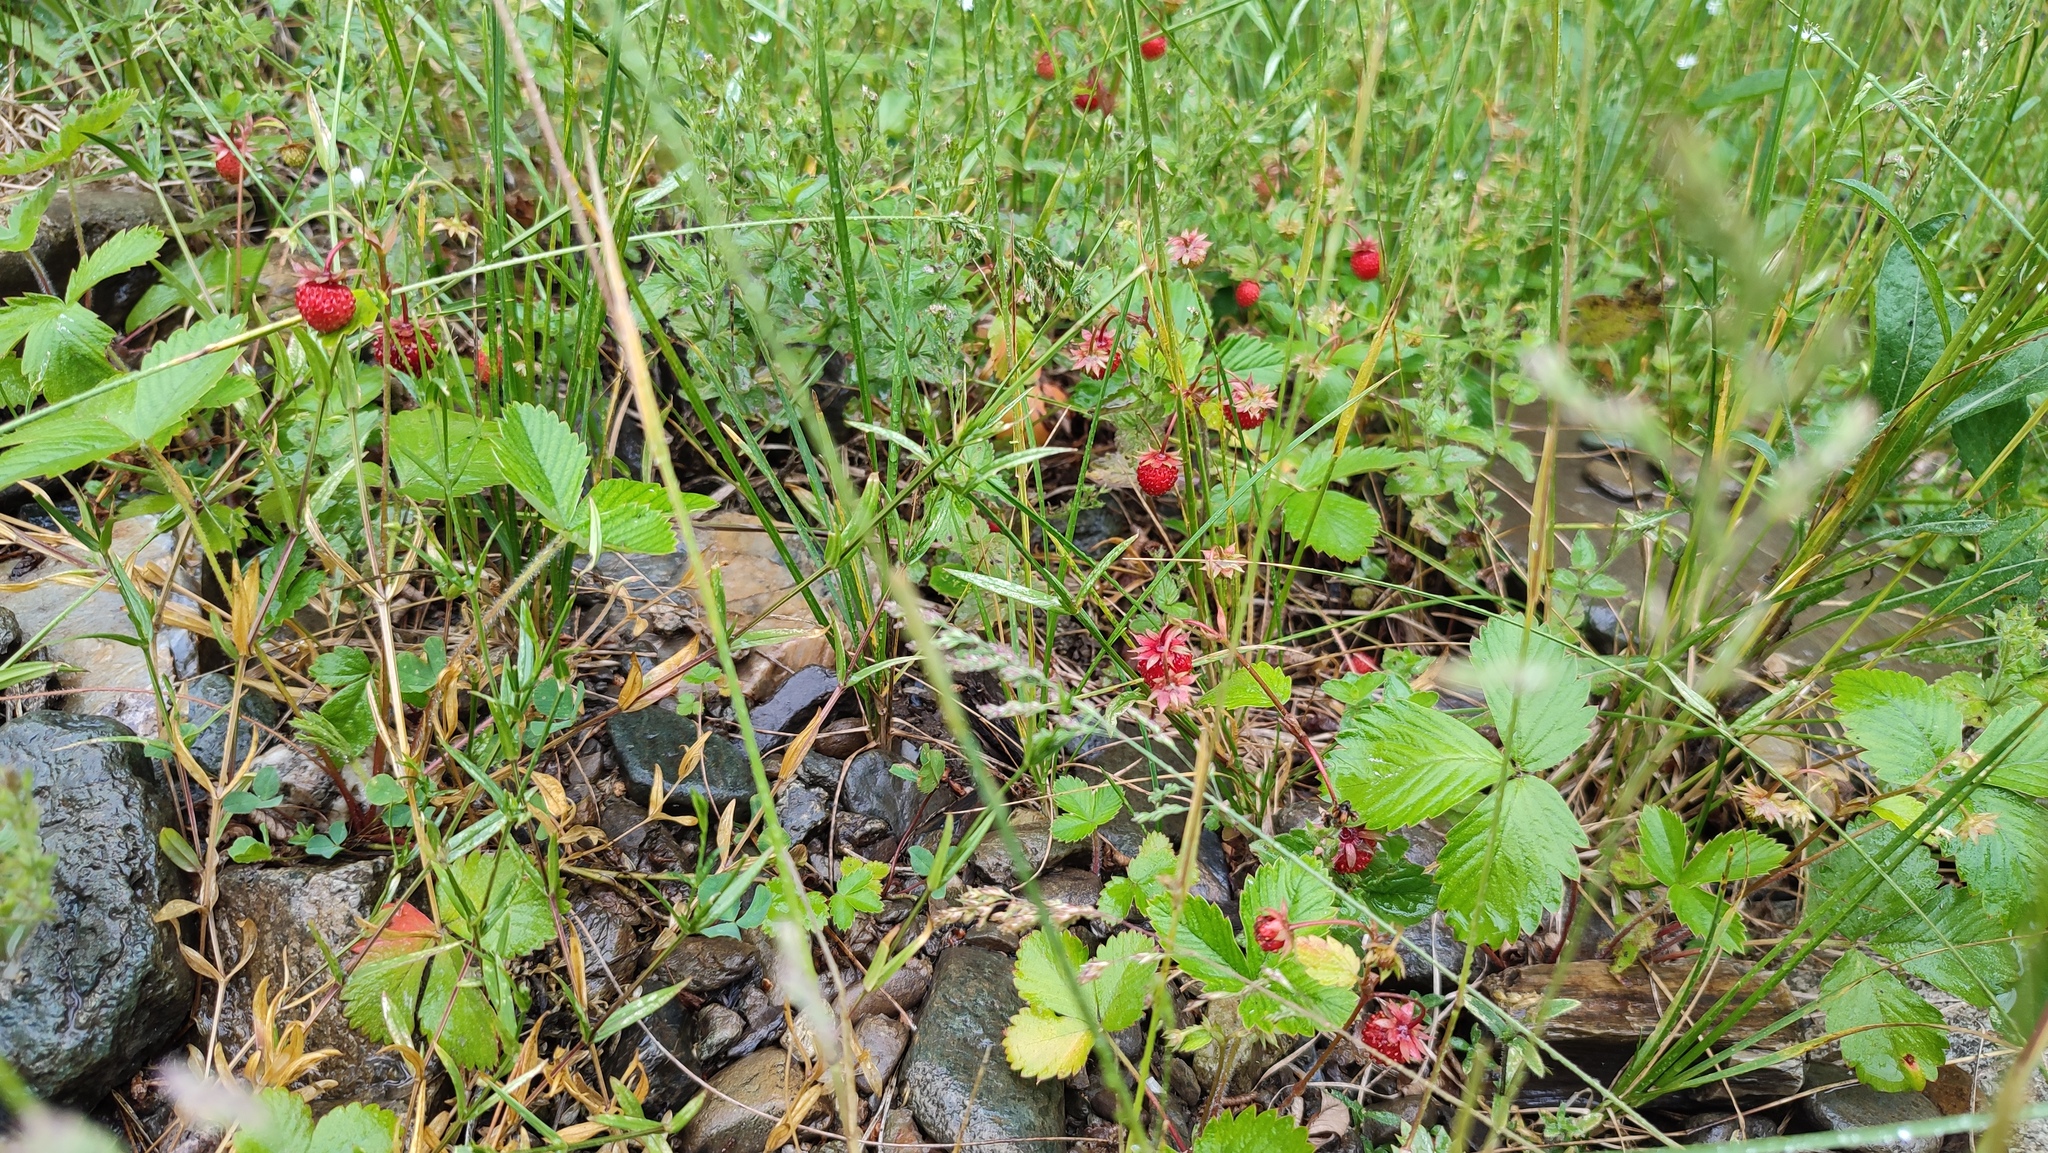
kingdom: Plantae
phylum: Tracheophyta
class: Magnoliopsida
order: Rosales
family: Rosaceae
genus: Fragaria
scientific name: Fragaria vesca
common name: Wild strawberry
